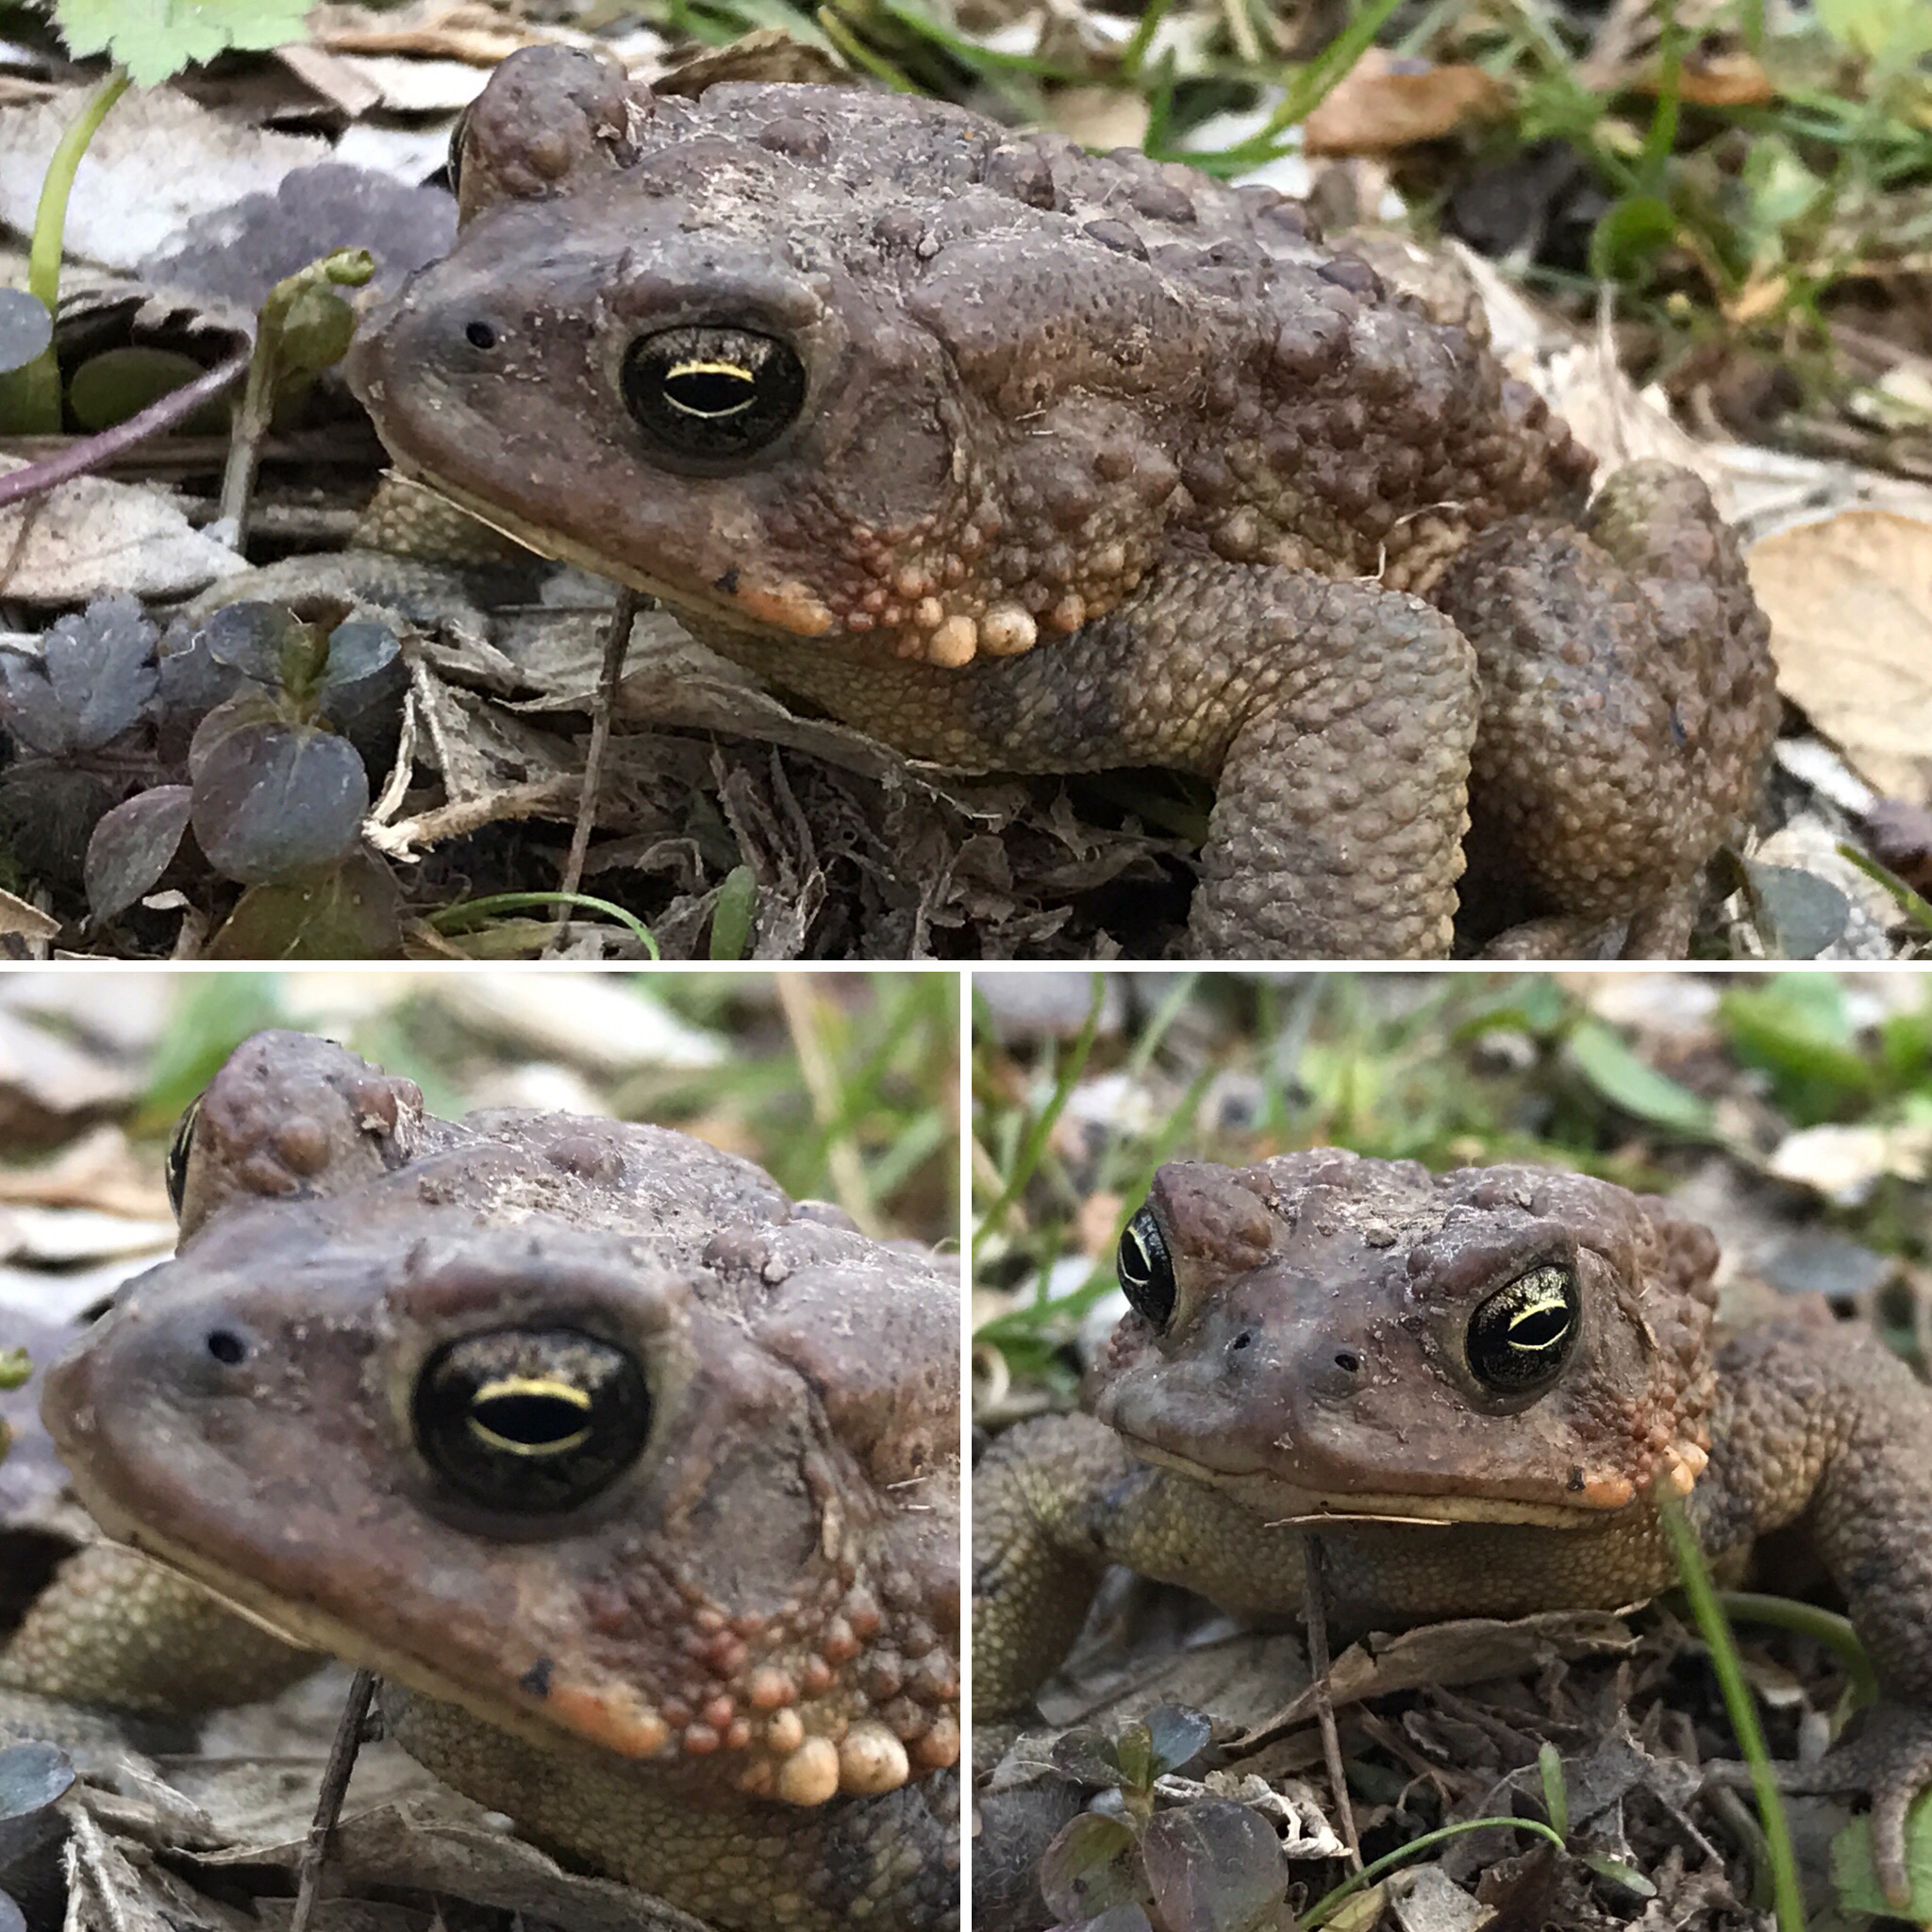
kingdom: Animalia
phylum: Chordata
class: Amphibia
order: Anura
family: Bufonidae
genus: Anaxyrus
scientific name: Anaxyrus americanus
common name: American toad
